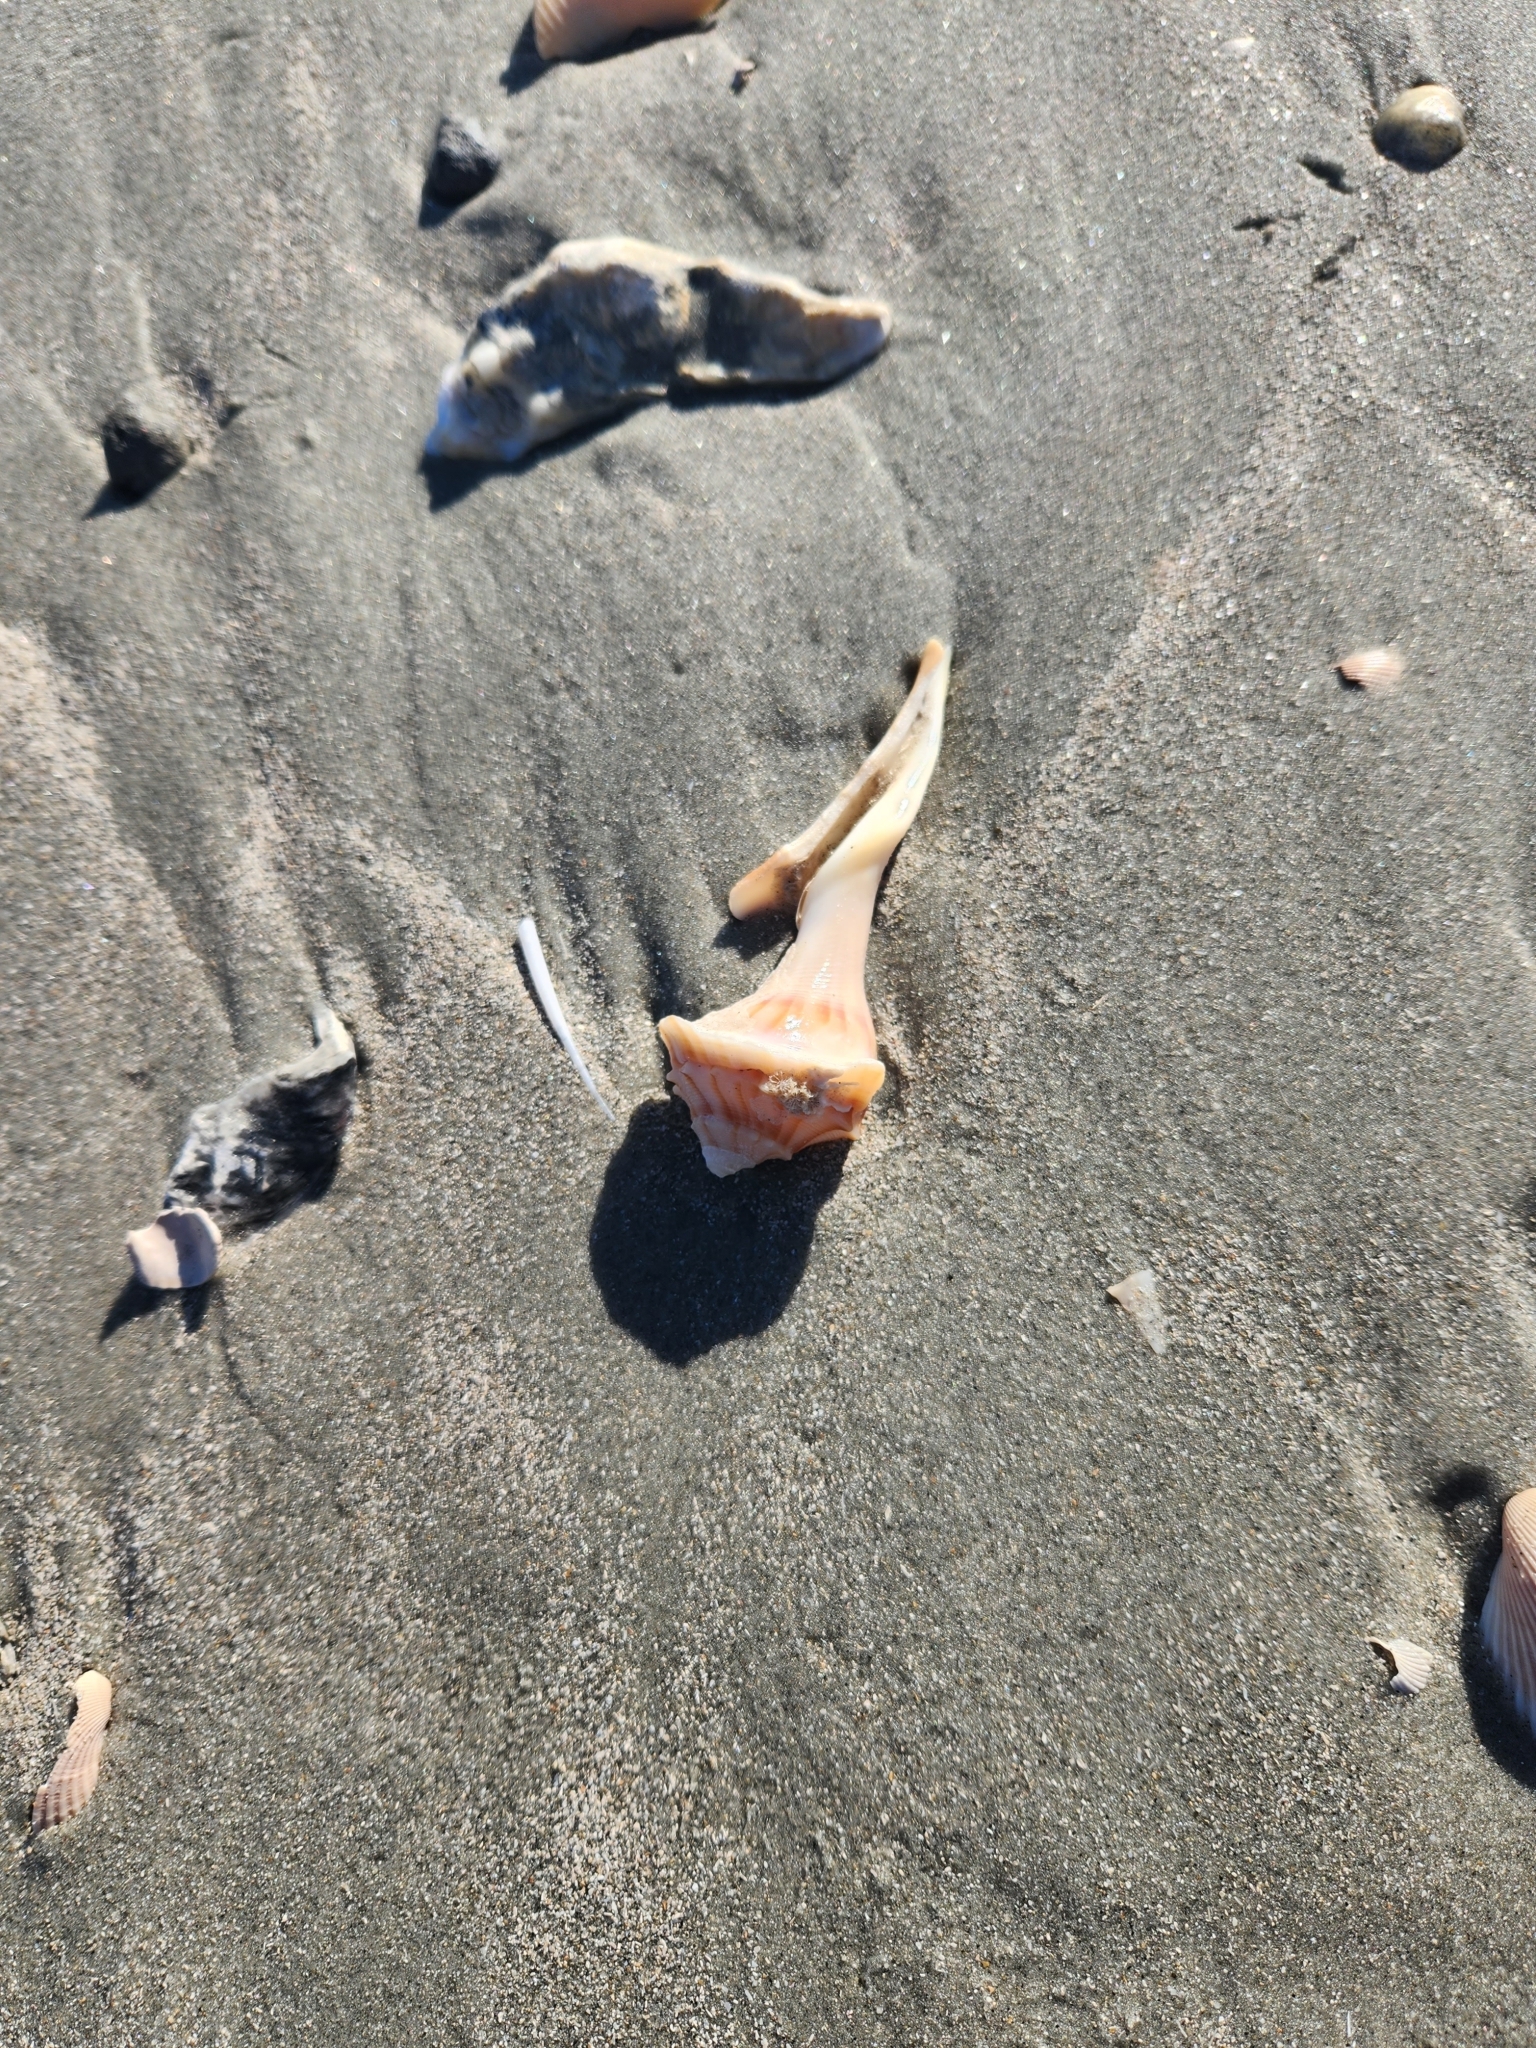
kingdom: Animalia
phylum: Mollusca
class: Gastropoda
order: Neogastropoda
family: Busyconidae
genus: Busycon
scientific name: Busycon carica
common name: Knobbed whelk
